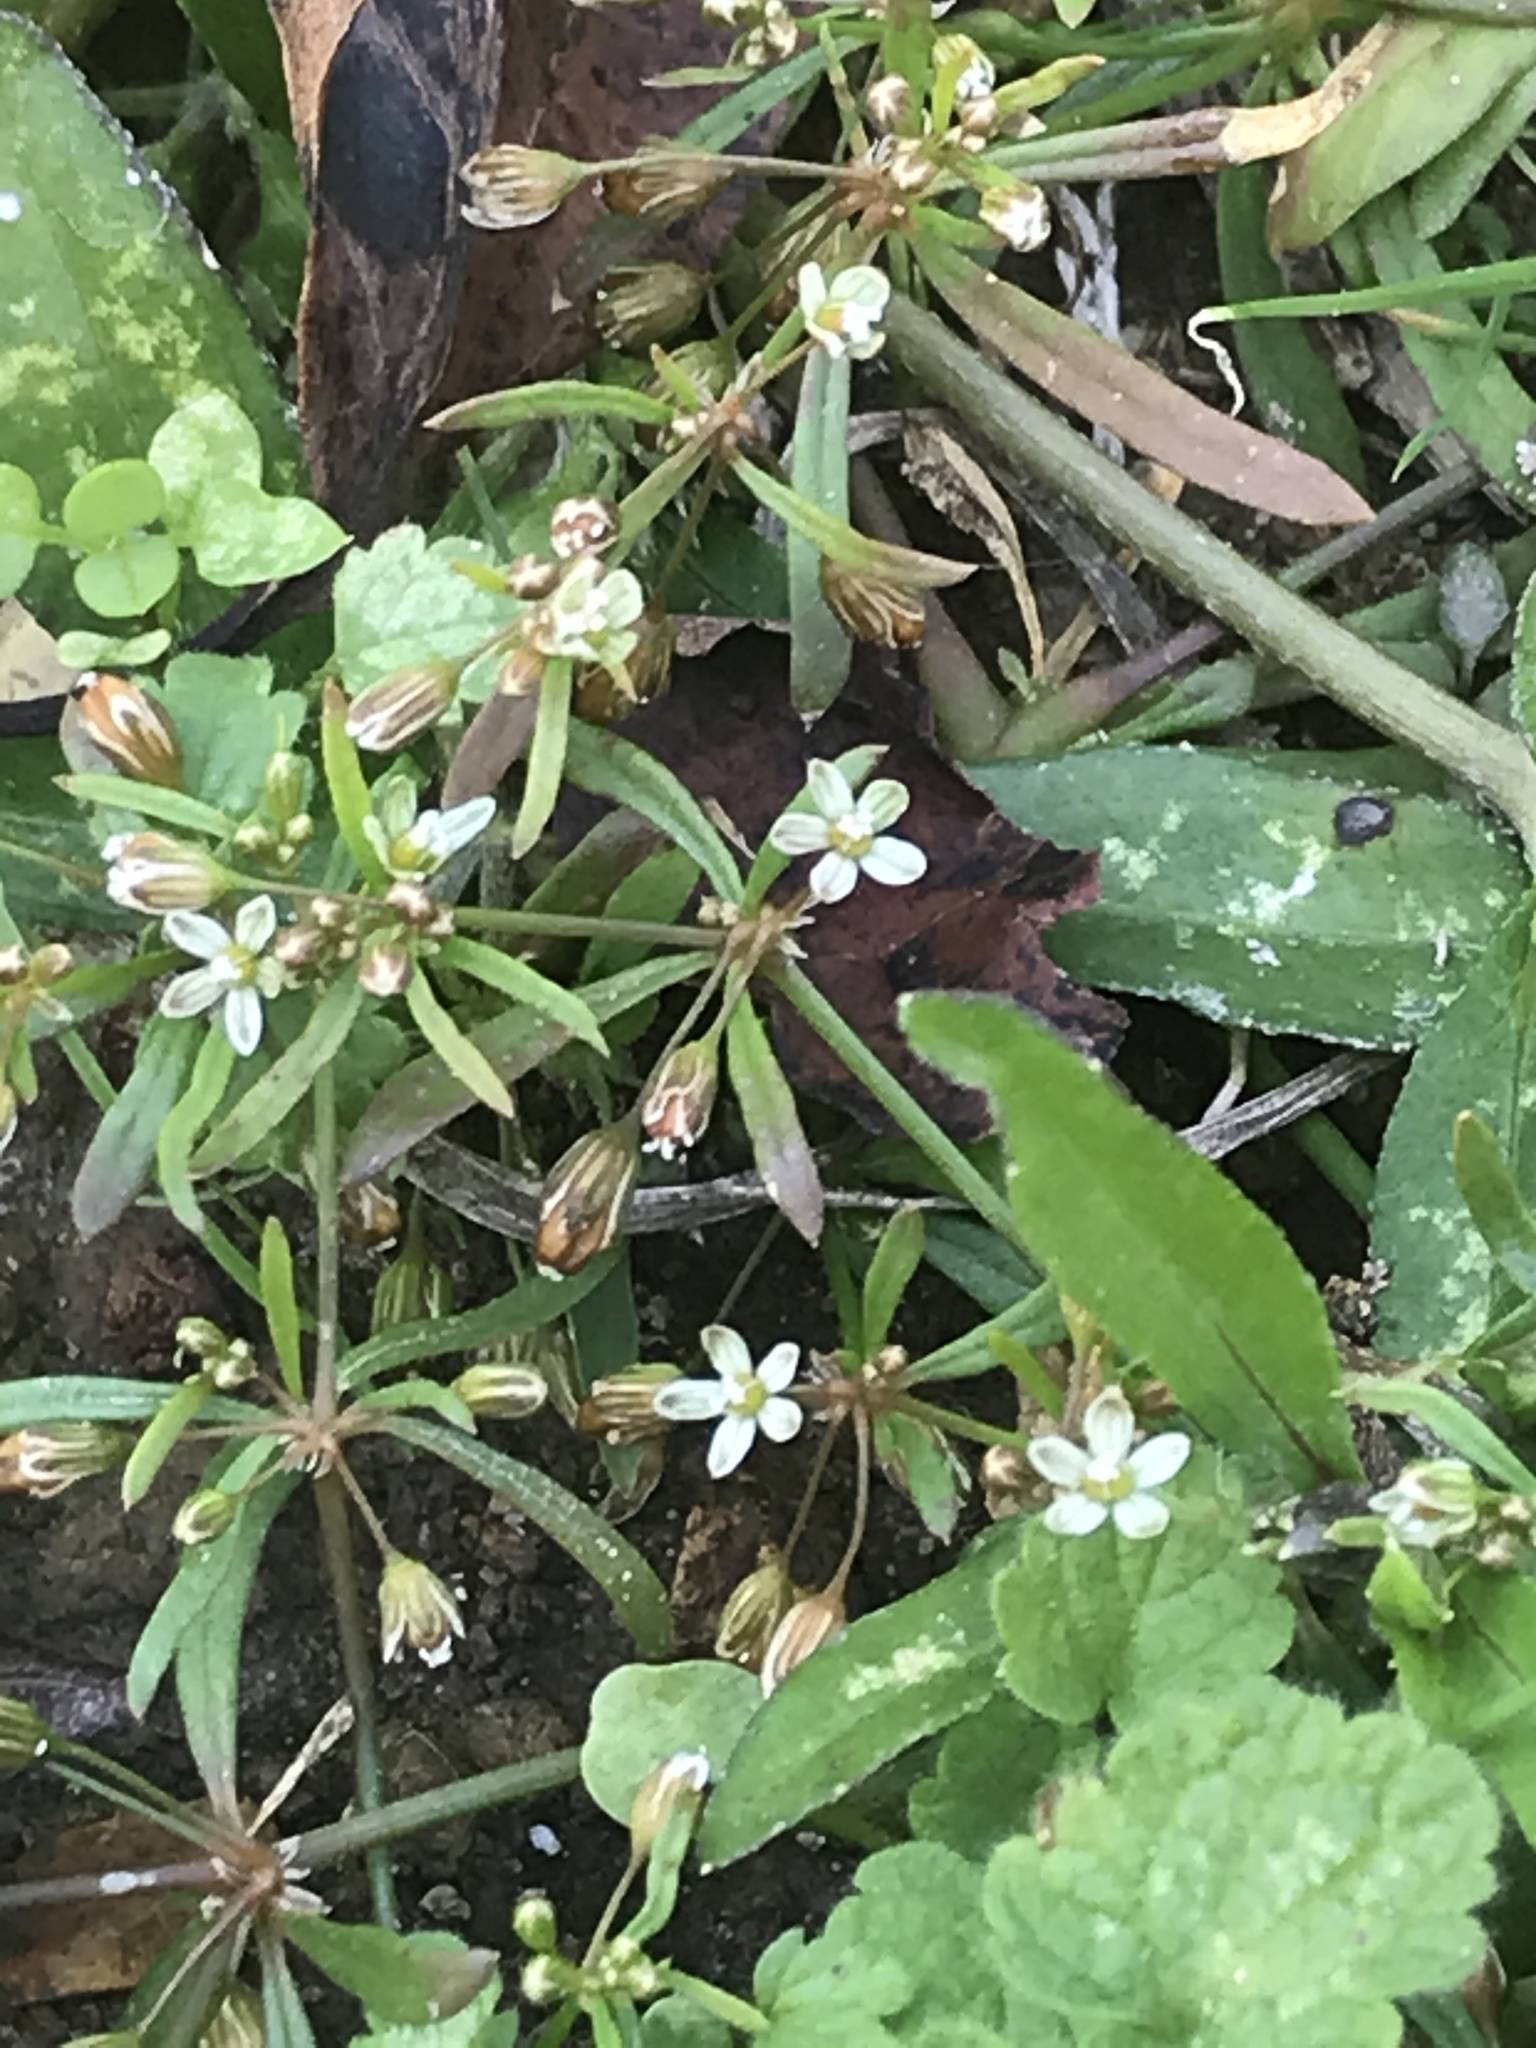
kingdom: Plantae
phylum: Tracheophyta
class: Magnoliopsida
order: Caryophyllales
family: Molluginaceae
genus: Mollugo
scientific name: Mollugo verticillata
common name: Green carpetweed
